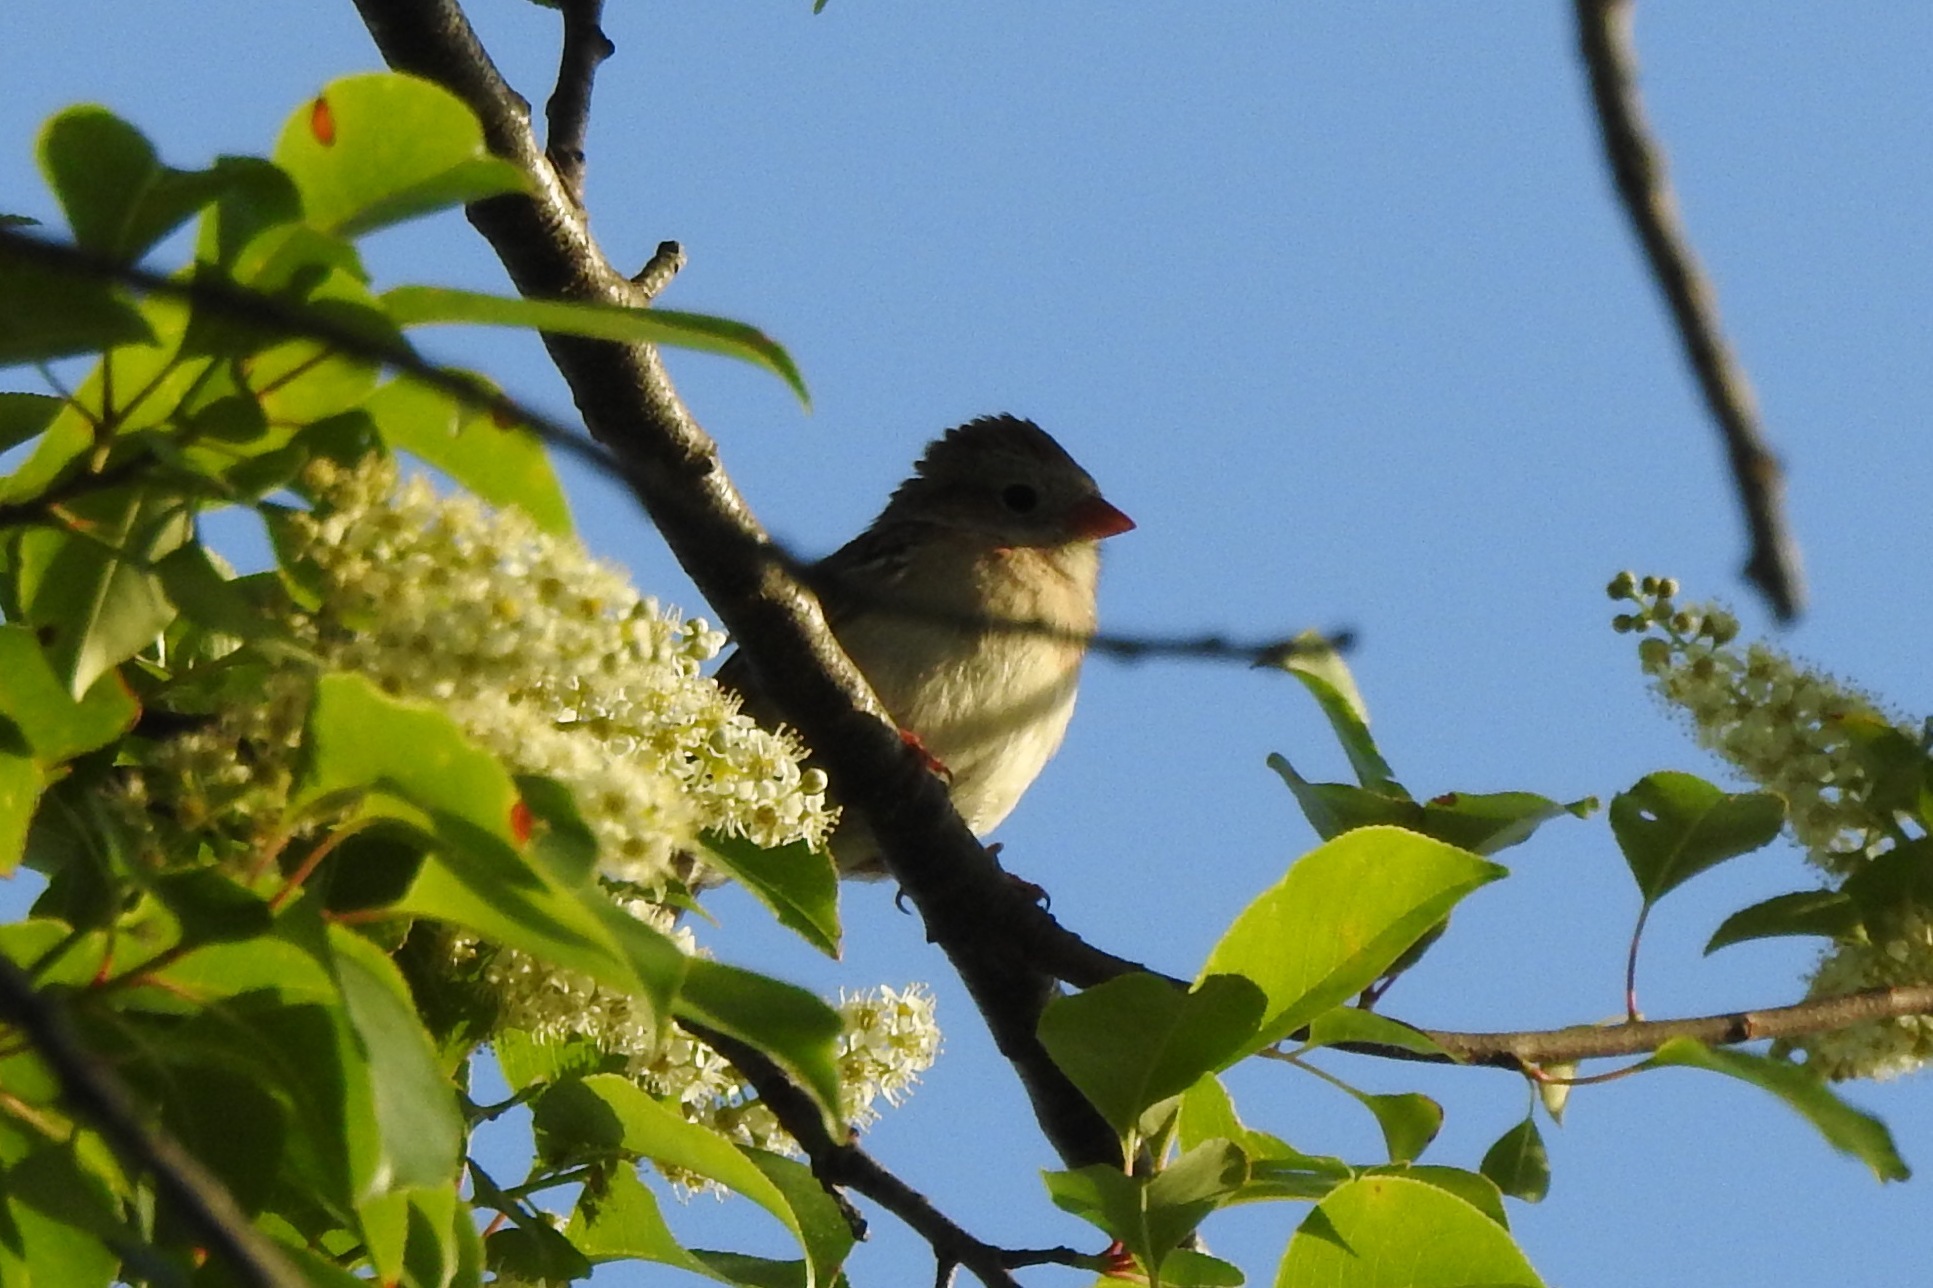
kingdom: Animalia
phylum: Chordata
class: Aves
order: Passeriformes
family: Passerellidae
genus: Spizella
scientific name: Spizella pusilla
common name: Field sparrow
